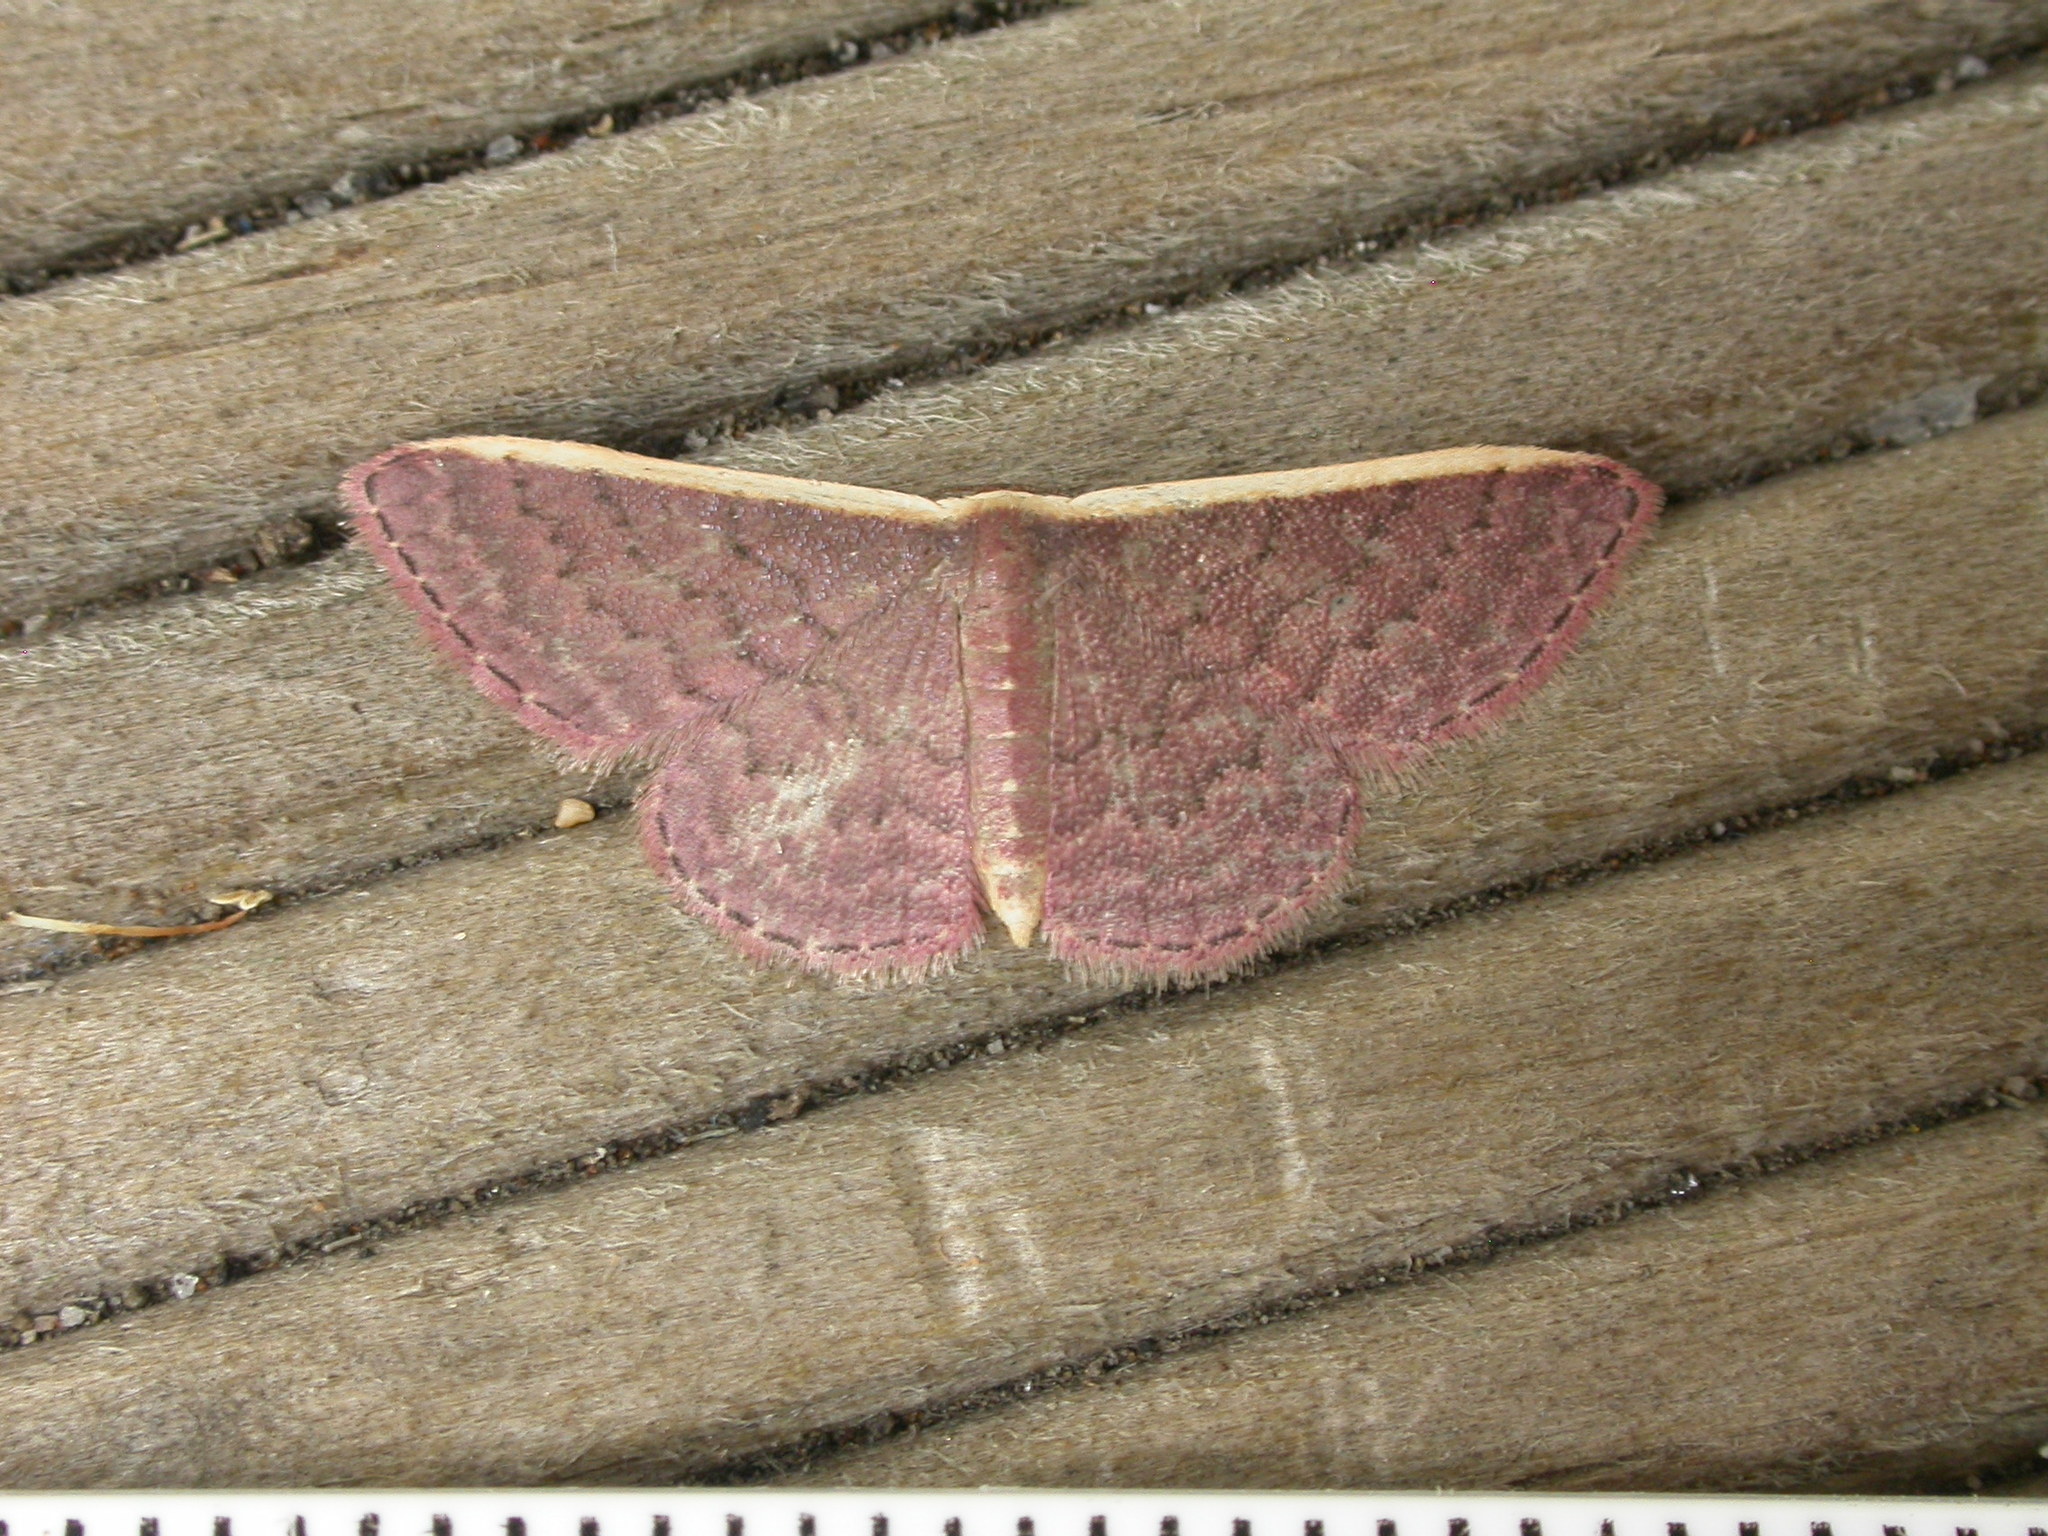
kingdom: Animalia
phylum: Arthropoda
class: Insecta
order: Lepidoptera
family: Geometridae
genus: Idaea
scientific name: Idaea inversata
